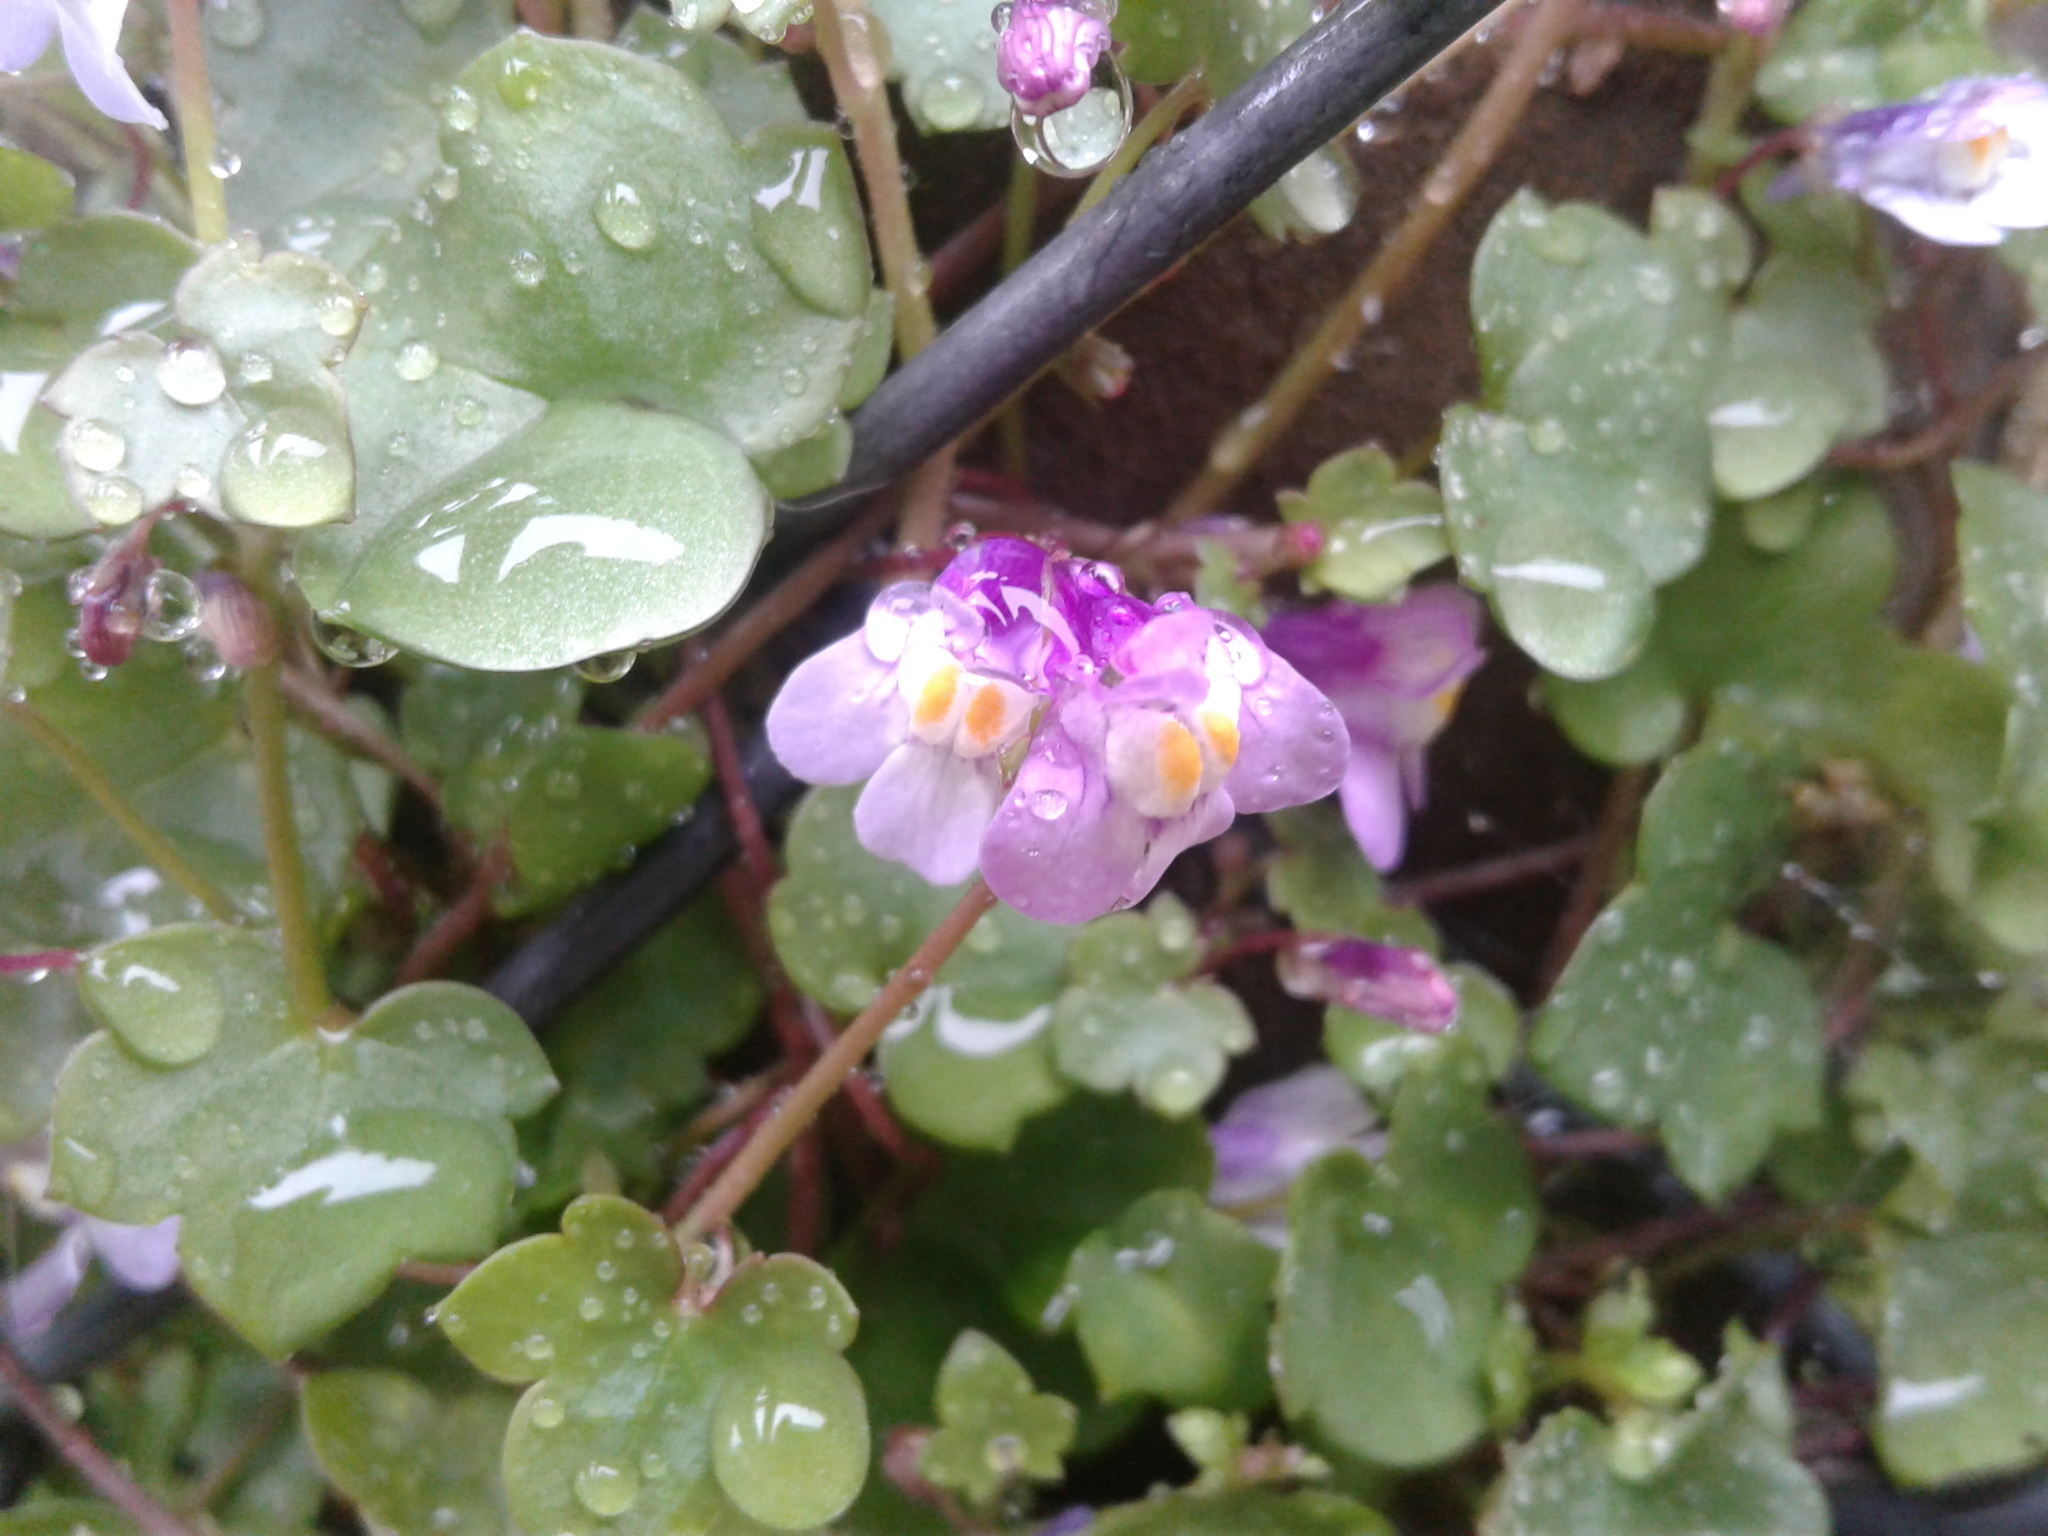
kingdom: Plantae
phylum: Tracheophyta
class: Magnoliopsida
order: Lamiales
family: Plantaginaceae
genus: Cymbalaria
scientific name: Cymbalaria muralis
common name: Ivy-leaved toadflax
